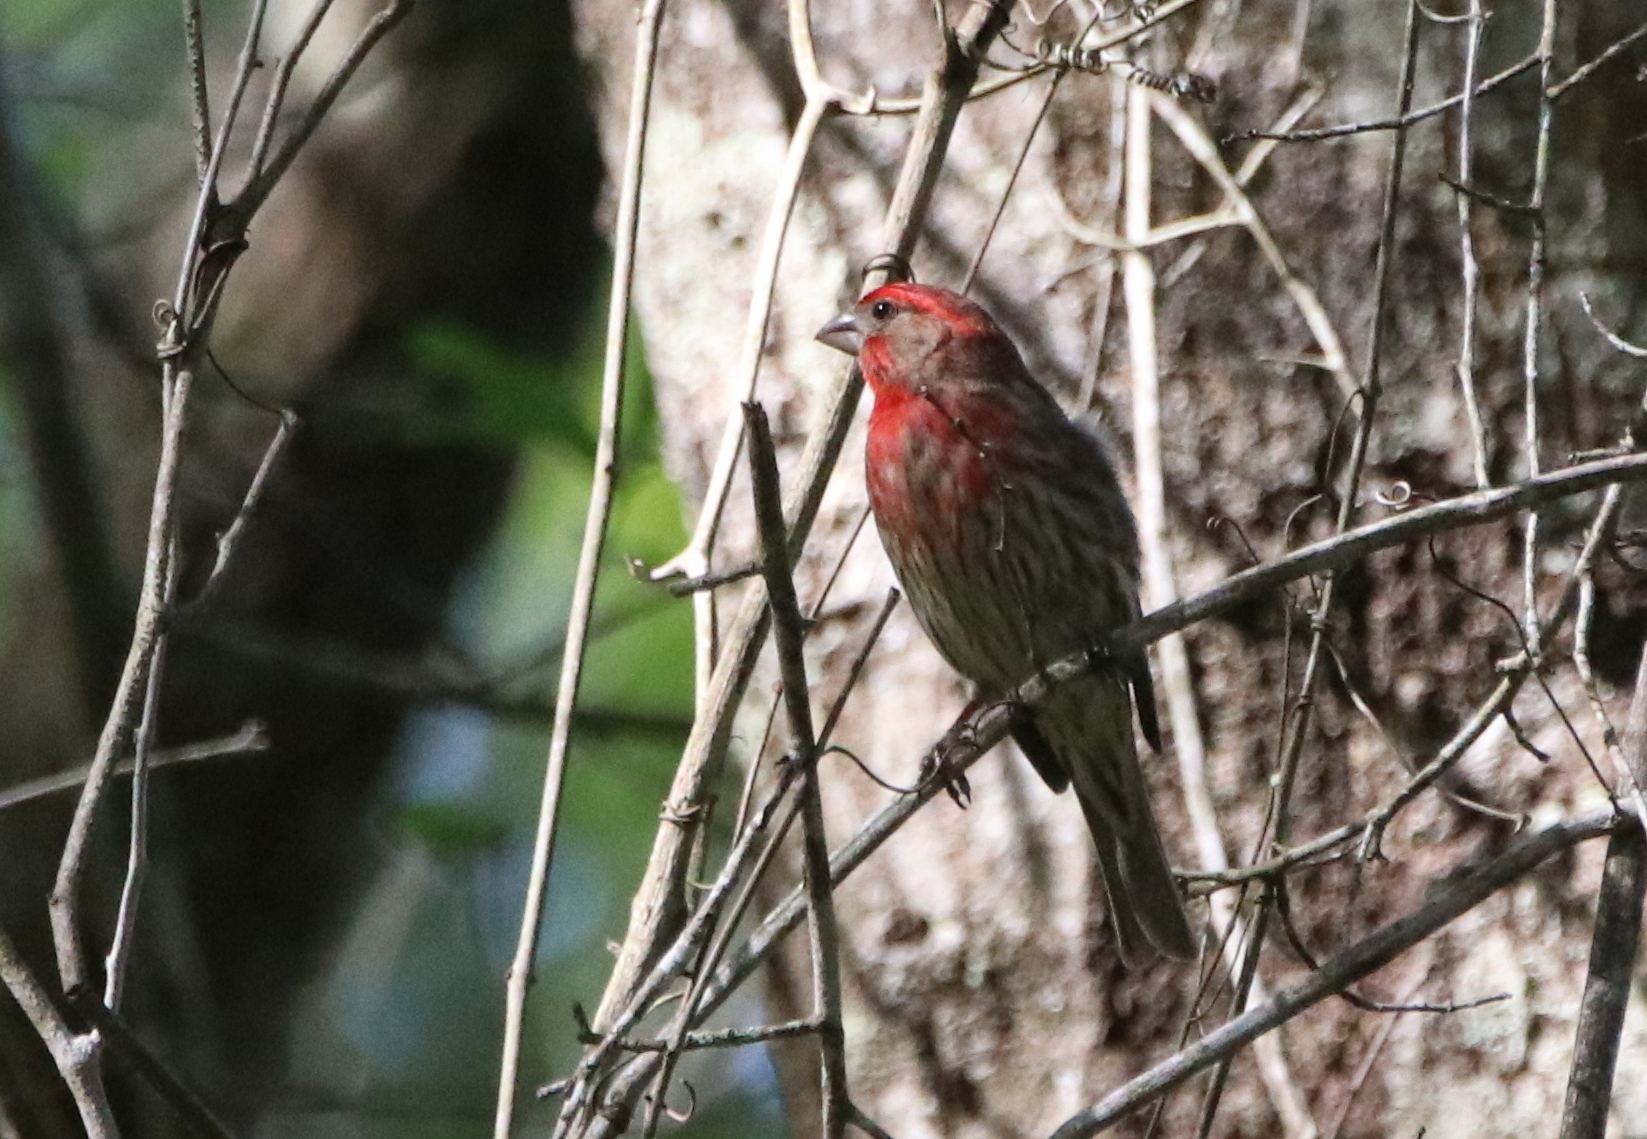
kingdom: Animalia
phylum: Chordata
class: Aves
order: Passeriformes
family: Fringillidae
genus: Haemorhous
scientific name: Haemorhous mexicanus
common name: House finch
